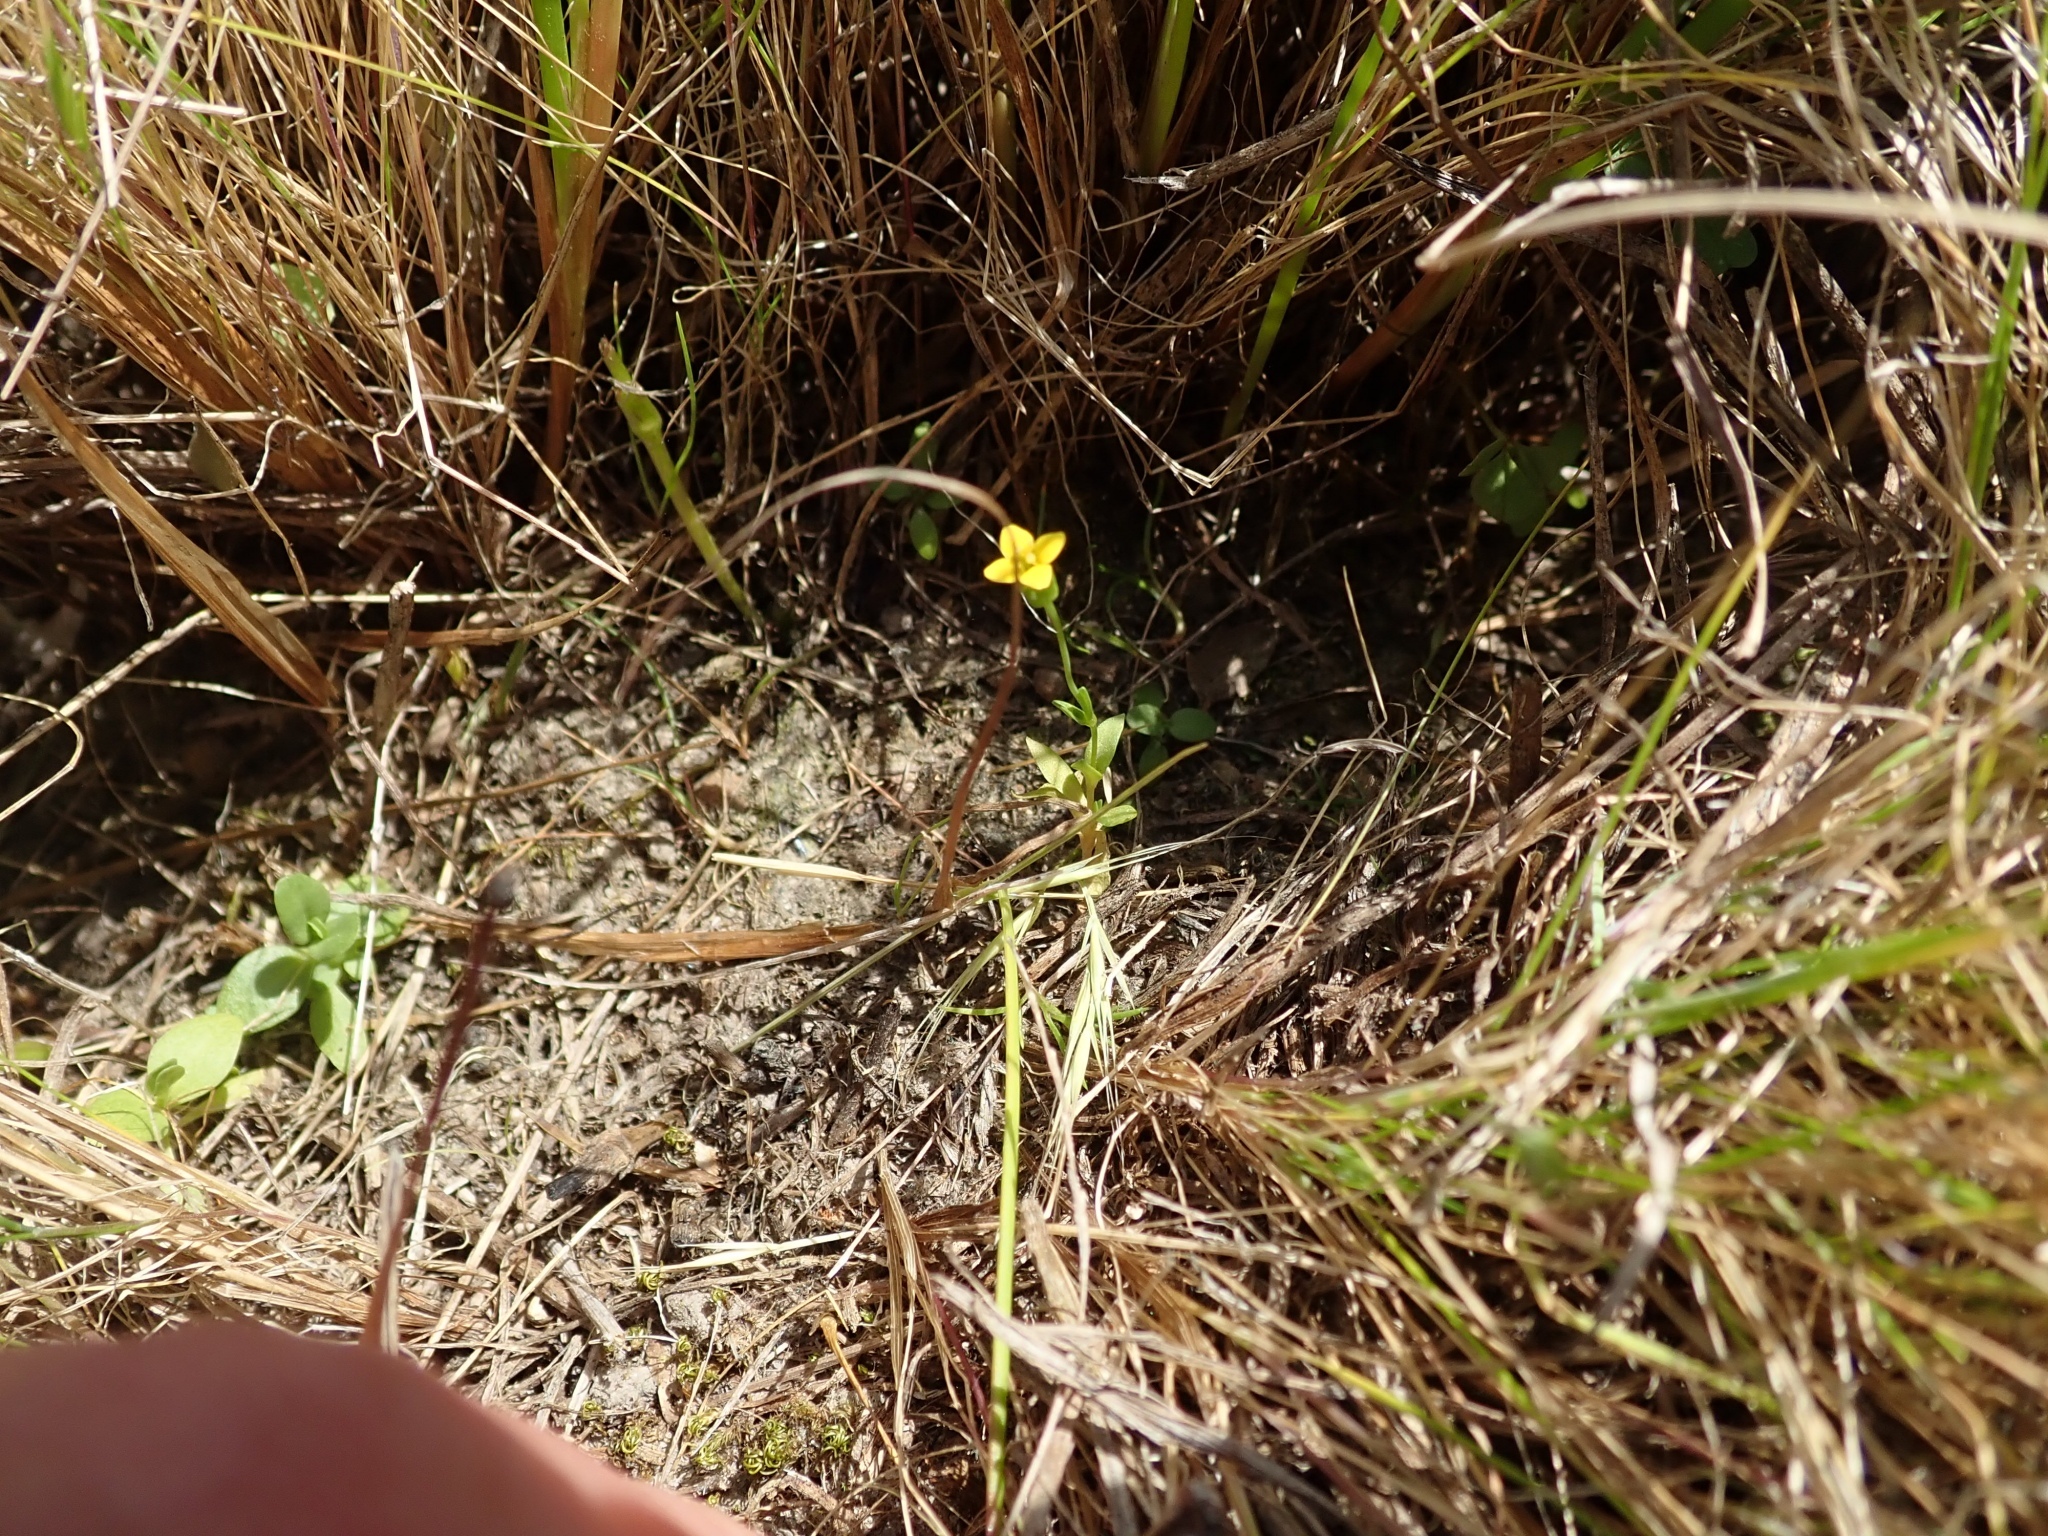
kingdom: Plantae
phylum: Tracheophyta
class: Magnoliopsida
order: Gentianales
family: Gentianaceae
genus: Microcala
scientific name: Microcala quadrangularis
